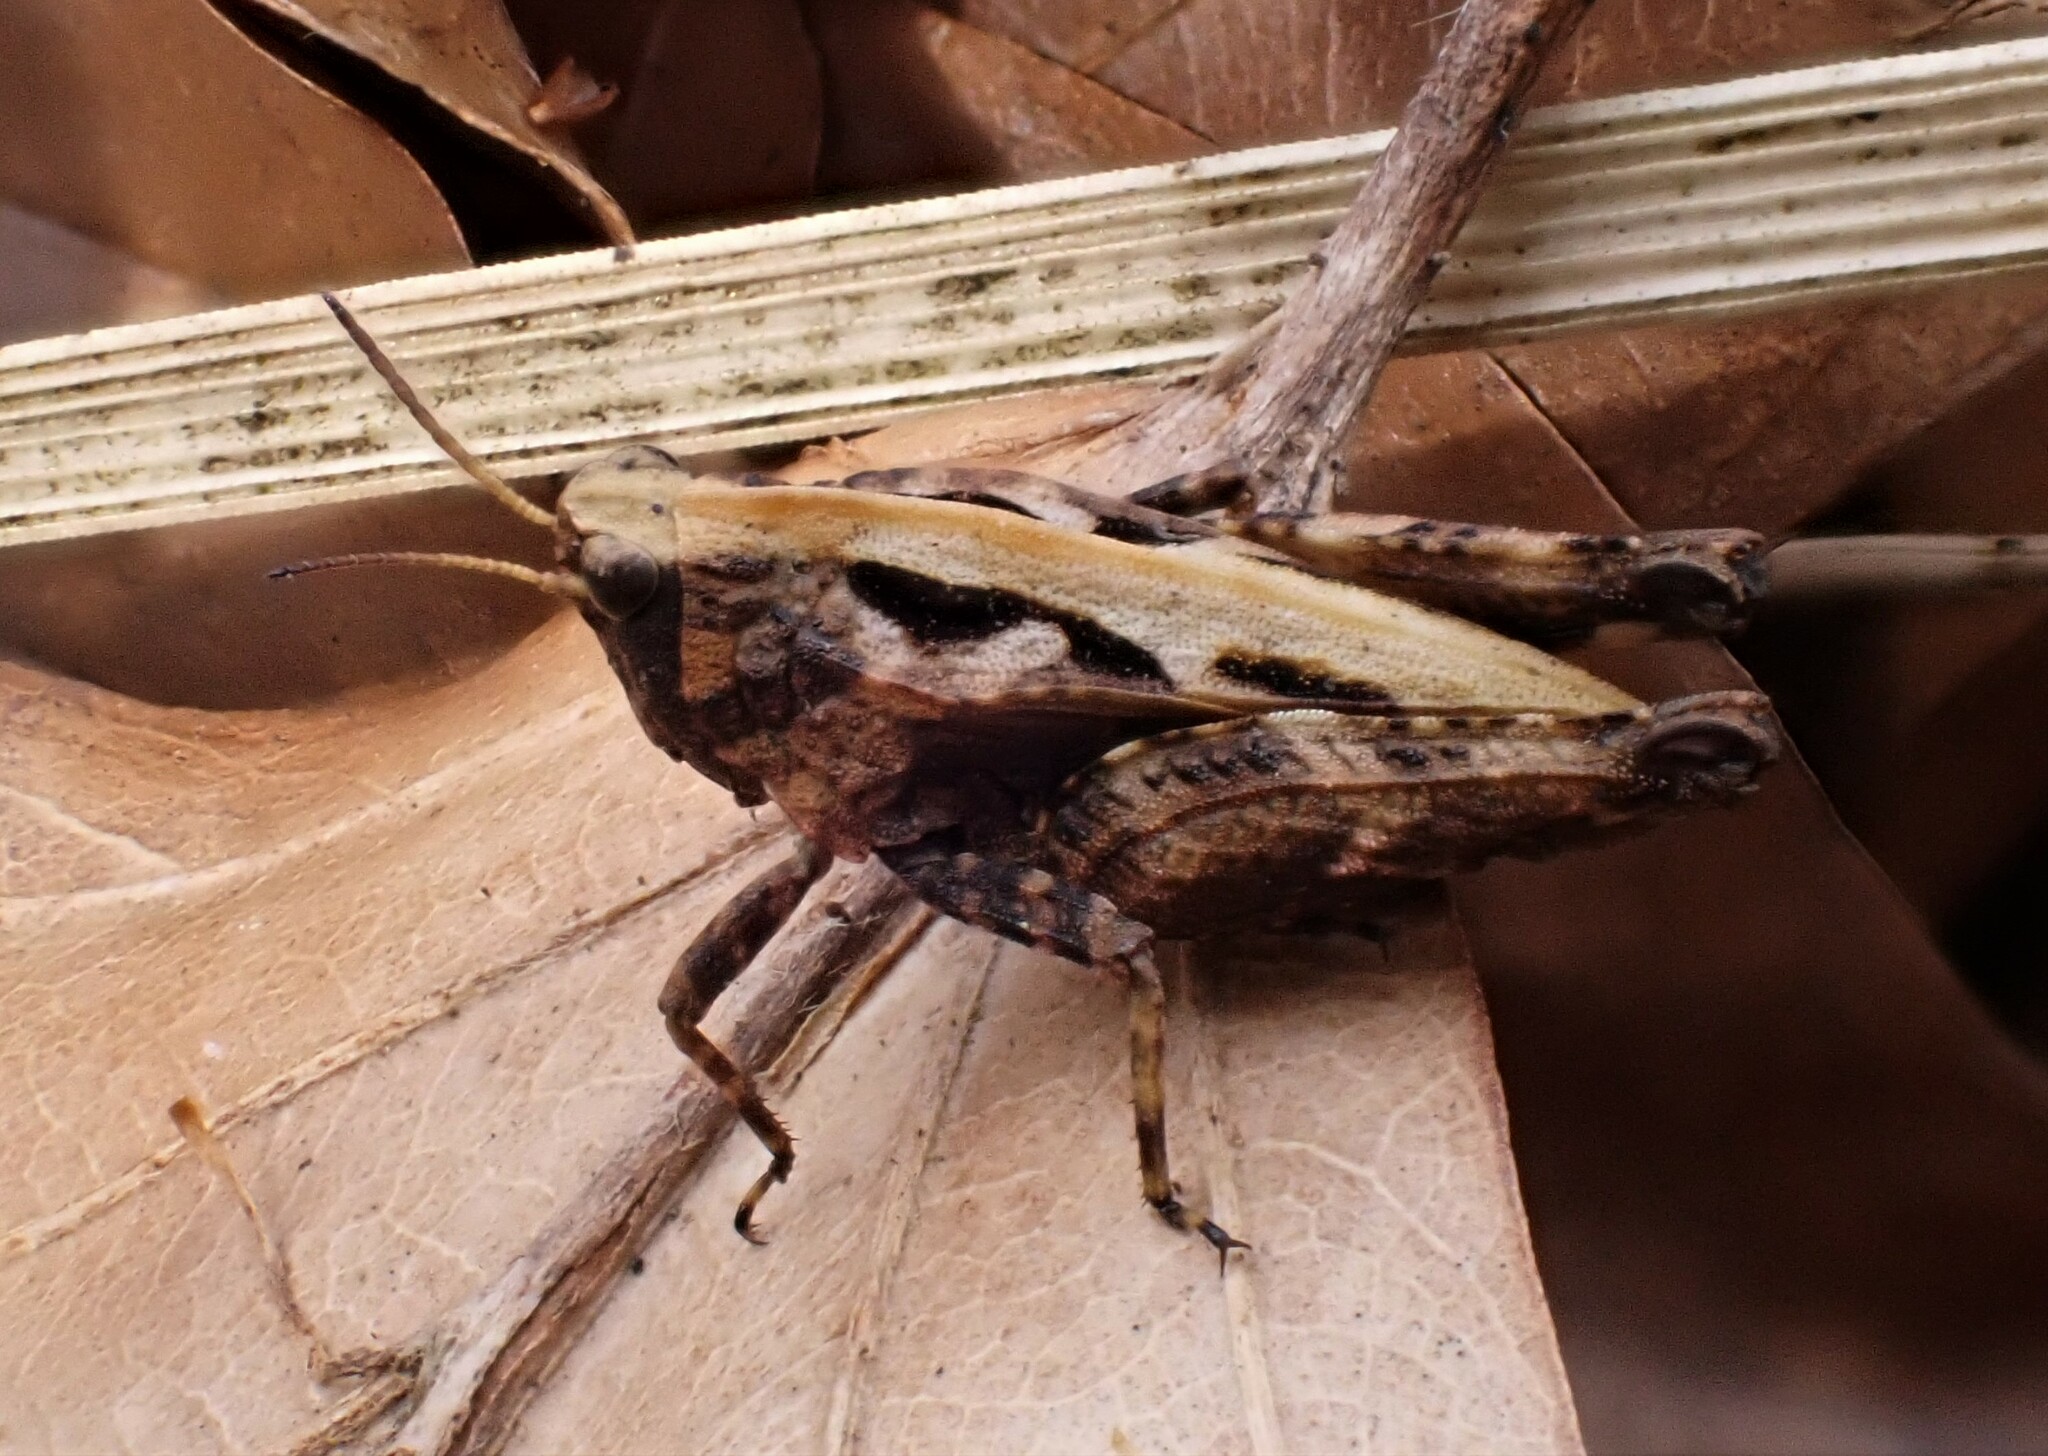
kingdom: Animalia
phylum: Arthropoda
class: Insecta
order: Orthoptera
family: Tetrigidae
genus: Tetrix
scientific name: Tetrix undulata
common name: Common groundhopper
